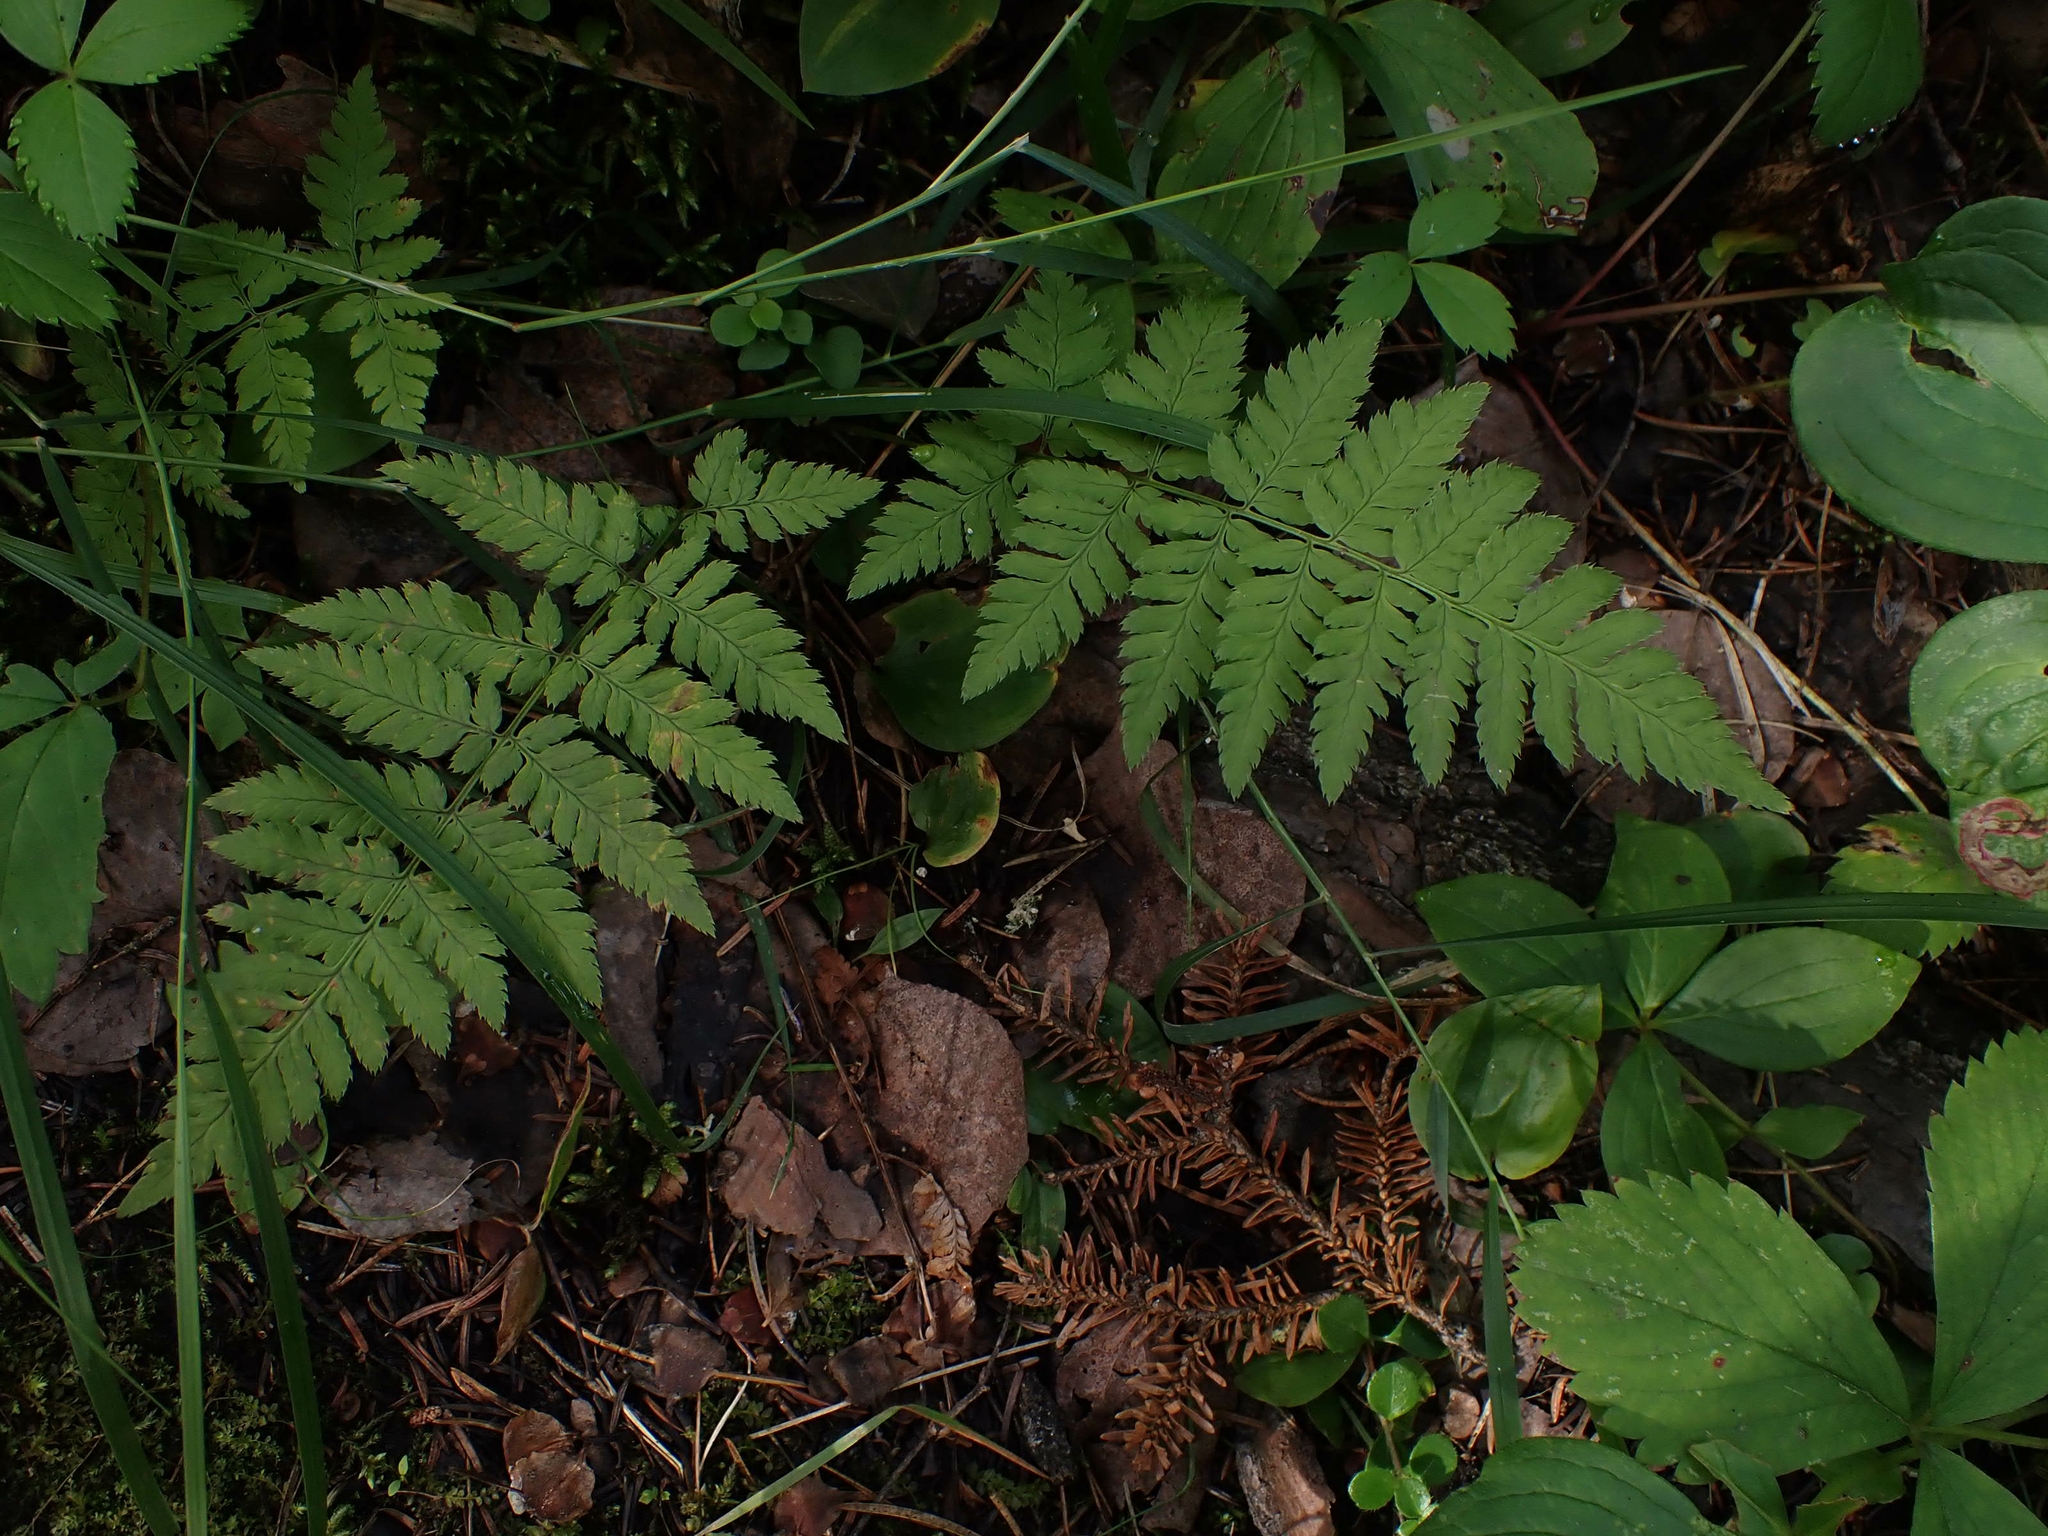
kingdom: Plantae
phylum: Tracheophyta
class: Polypodiopsida
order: Polypodiales
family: Dryopteridaceae
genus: Dryopteris
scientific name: Dryopteris carthusiana
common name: Narrow buckler-fern
